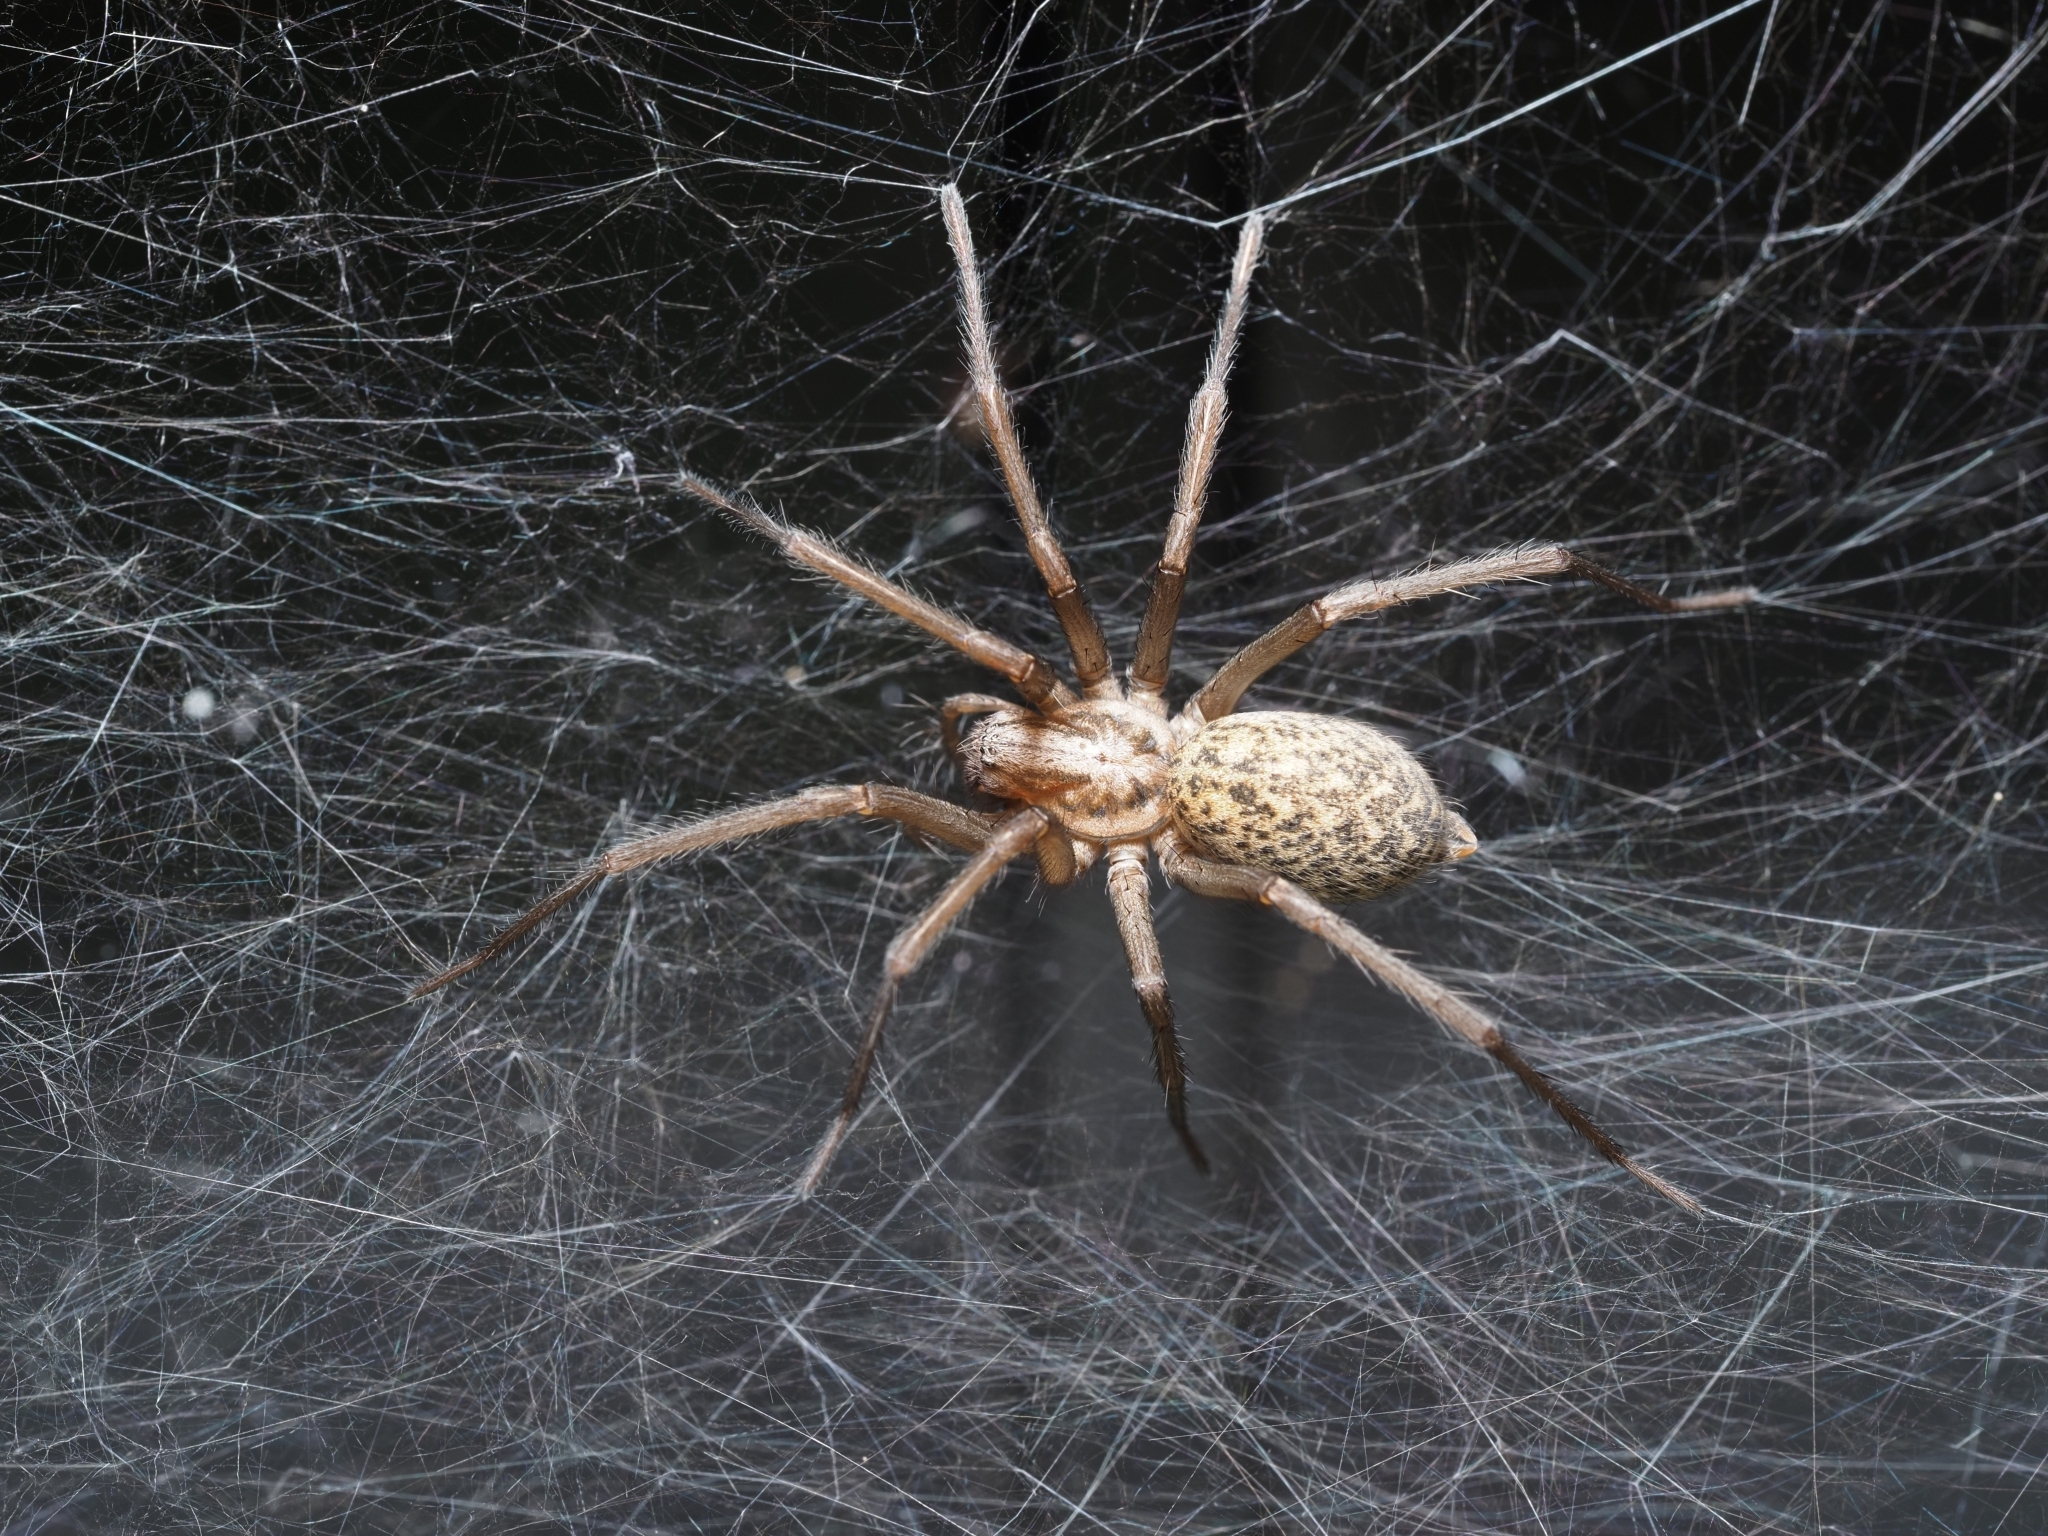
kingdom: Animalia
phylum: Arthropoda
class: Arachnida
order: Araneae
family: Agelenidae
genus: Eratigena
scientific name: Eratigena atrica
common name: Giant house spider
